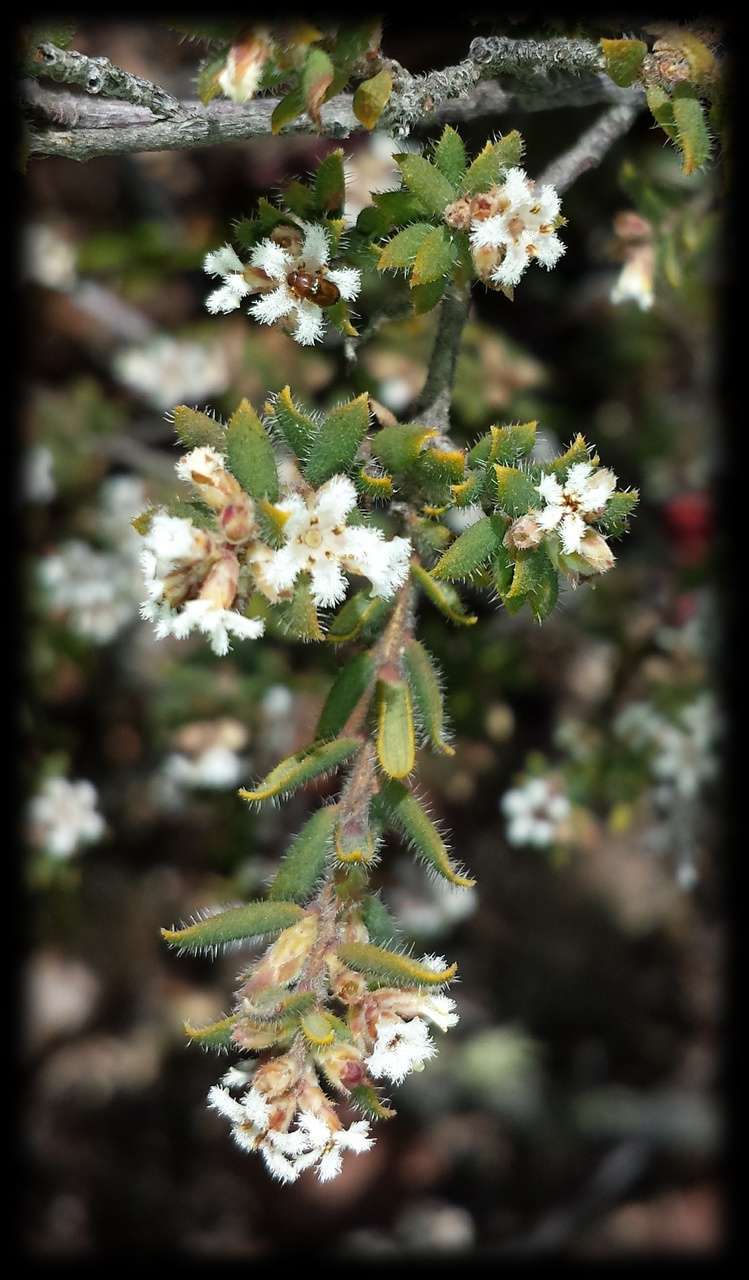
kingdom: Plantae
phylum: Tracheophyta
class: Magnoliopsida
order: Ericales
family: Ericaceae
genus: Leucopogon
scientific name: Leucopogon thymifolius
